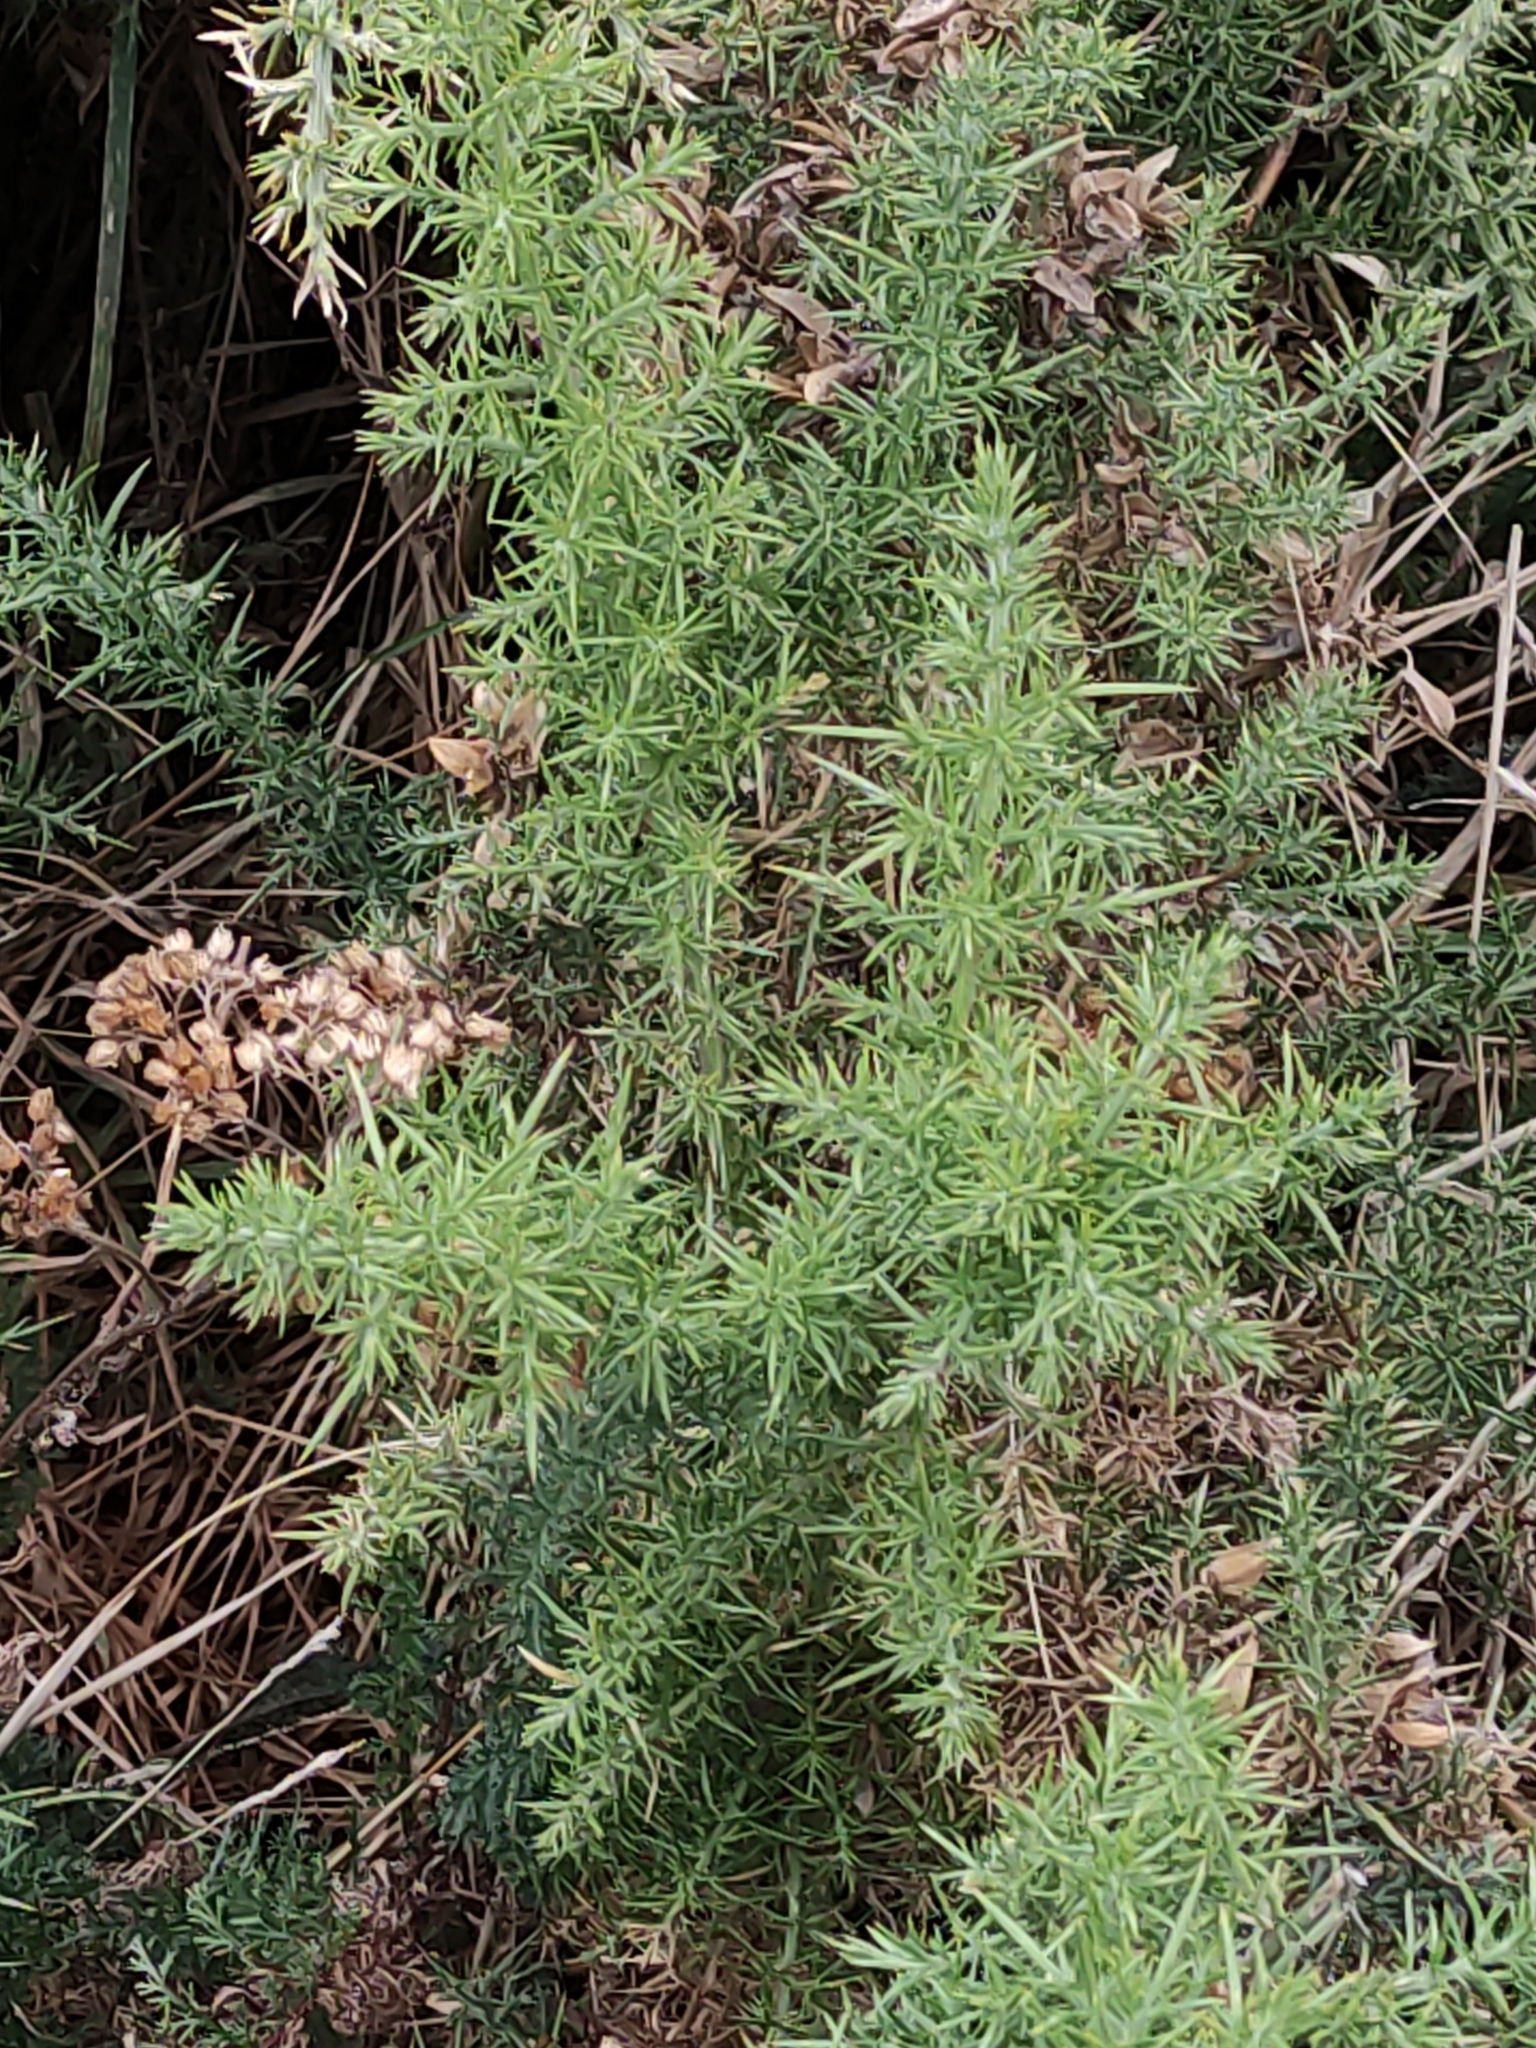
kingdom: Plantae
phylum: Tracheophyta
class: Magnoliopsida
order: Fabales
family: Fabaceae
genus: Ulex
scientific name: Ulex europaeus
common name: Common gorse
